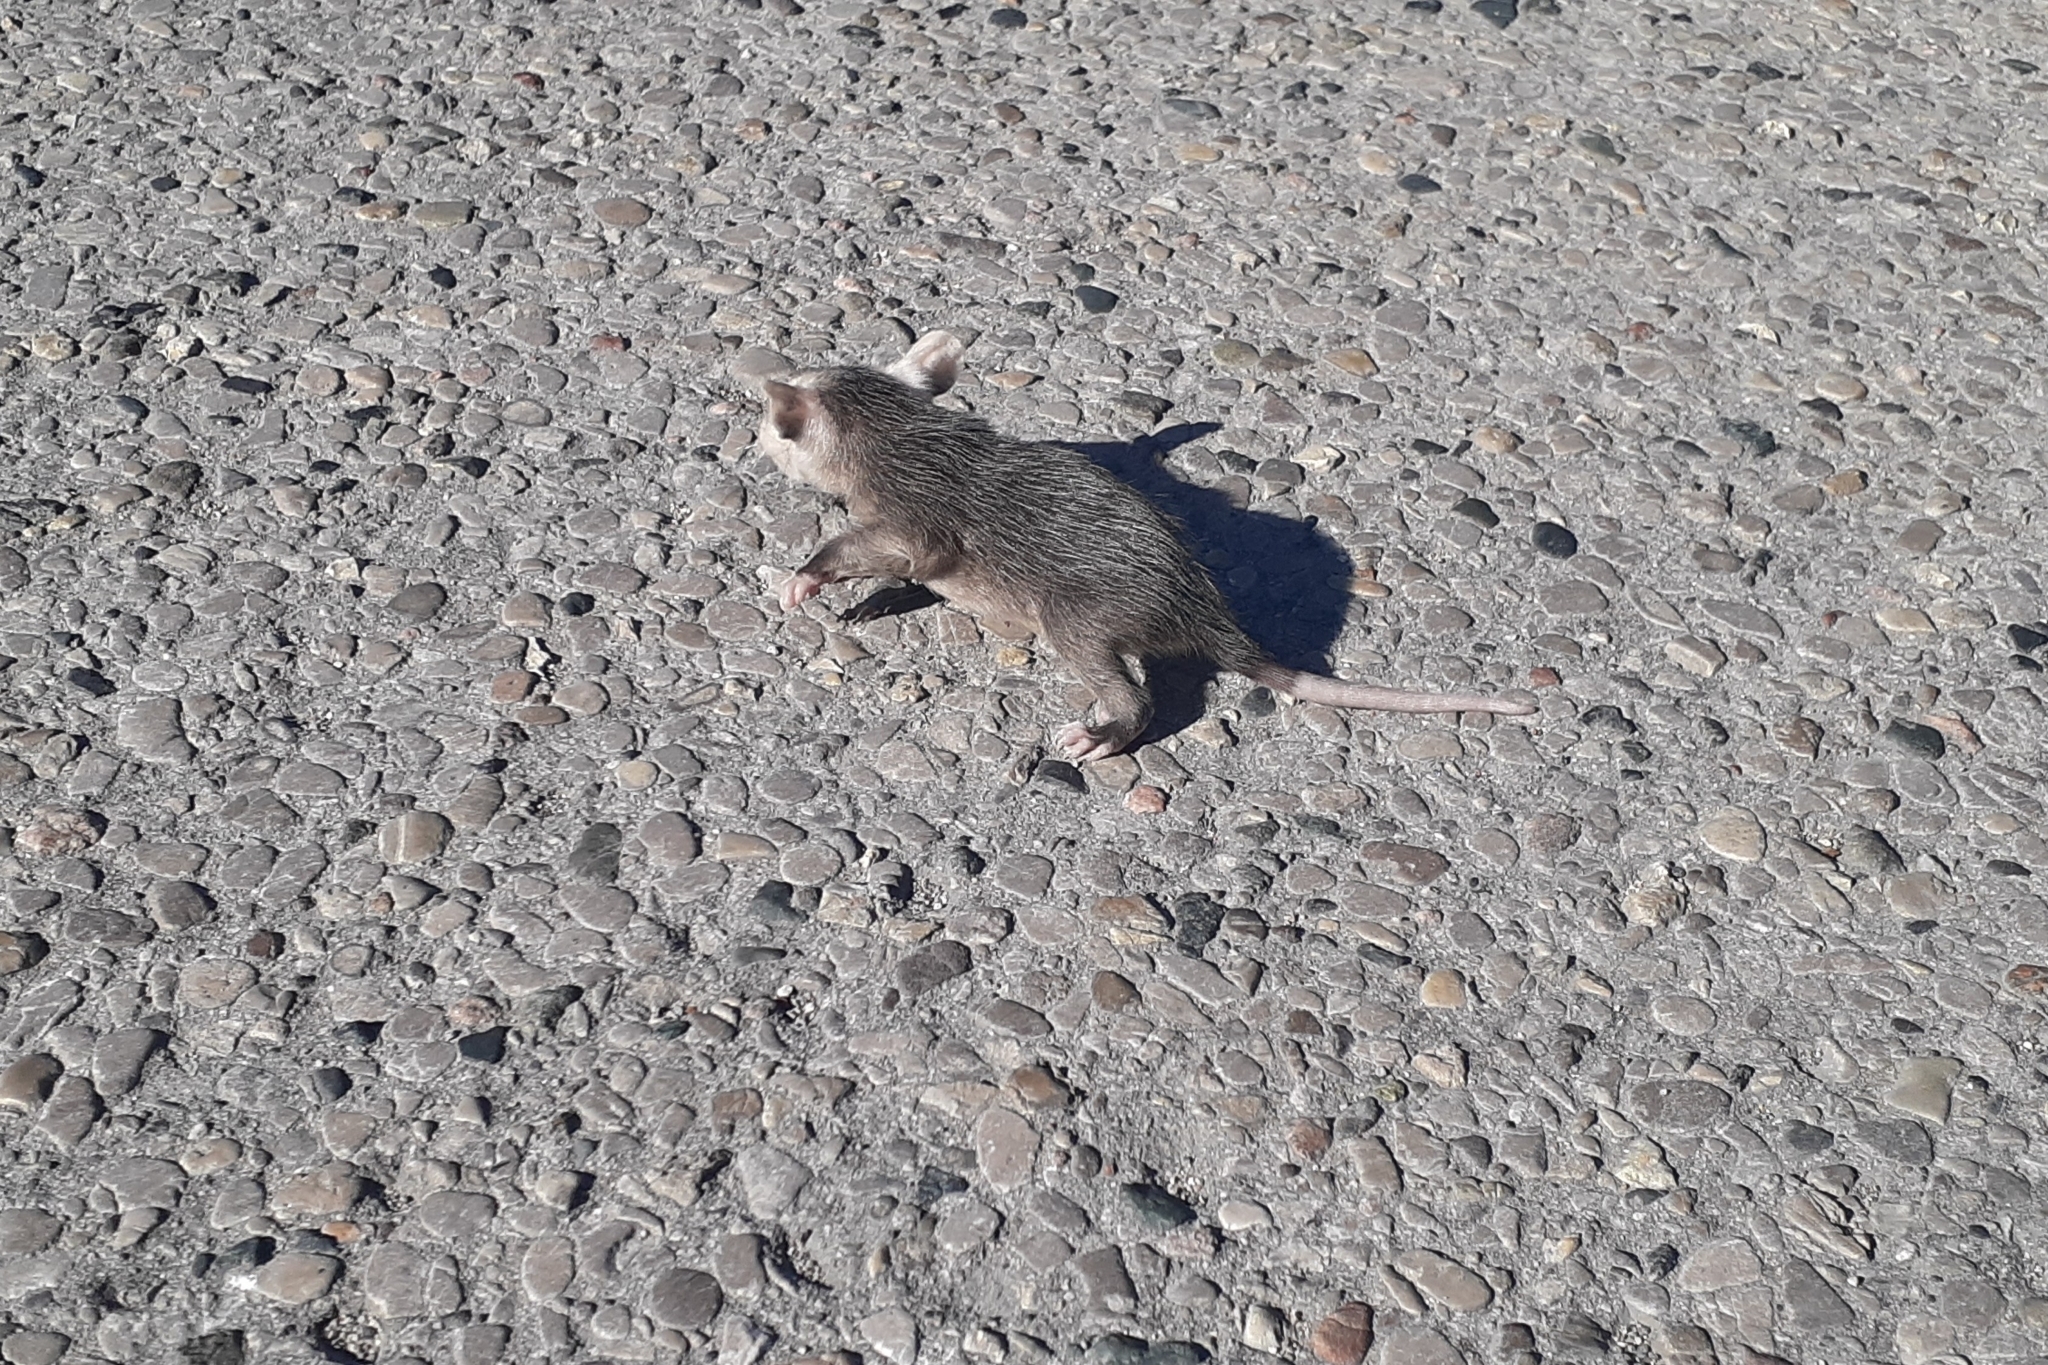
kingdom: Animalia
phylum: Chordata
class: Mammalia
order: Didelphimorphia
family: Didelphidae
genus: Didelphis
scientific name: Didelphis virginiana
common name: Virginia opossum
